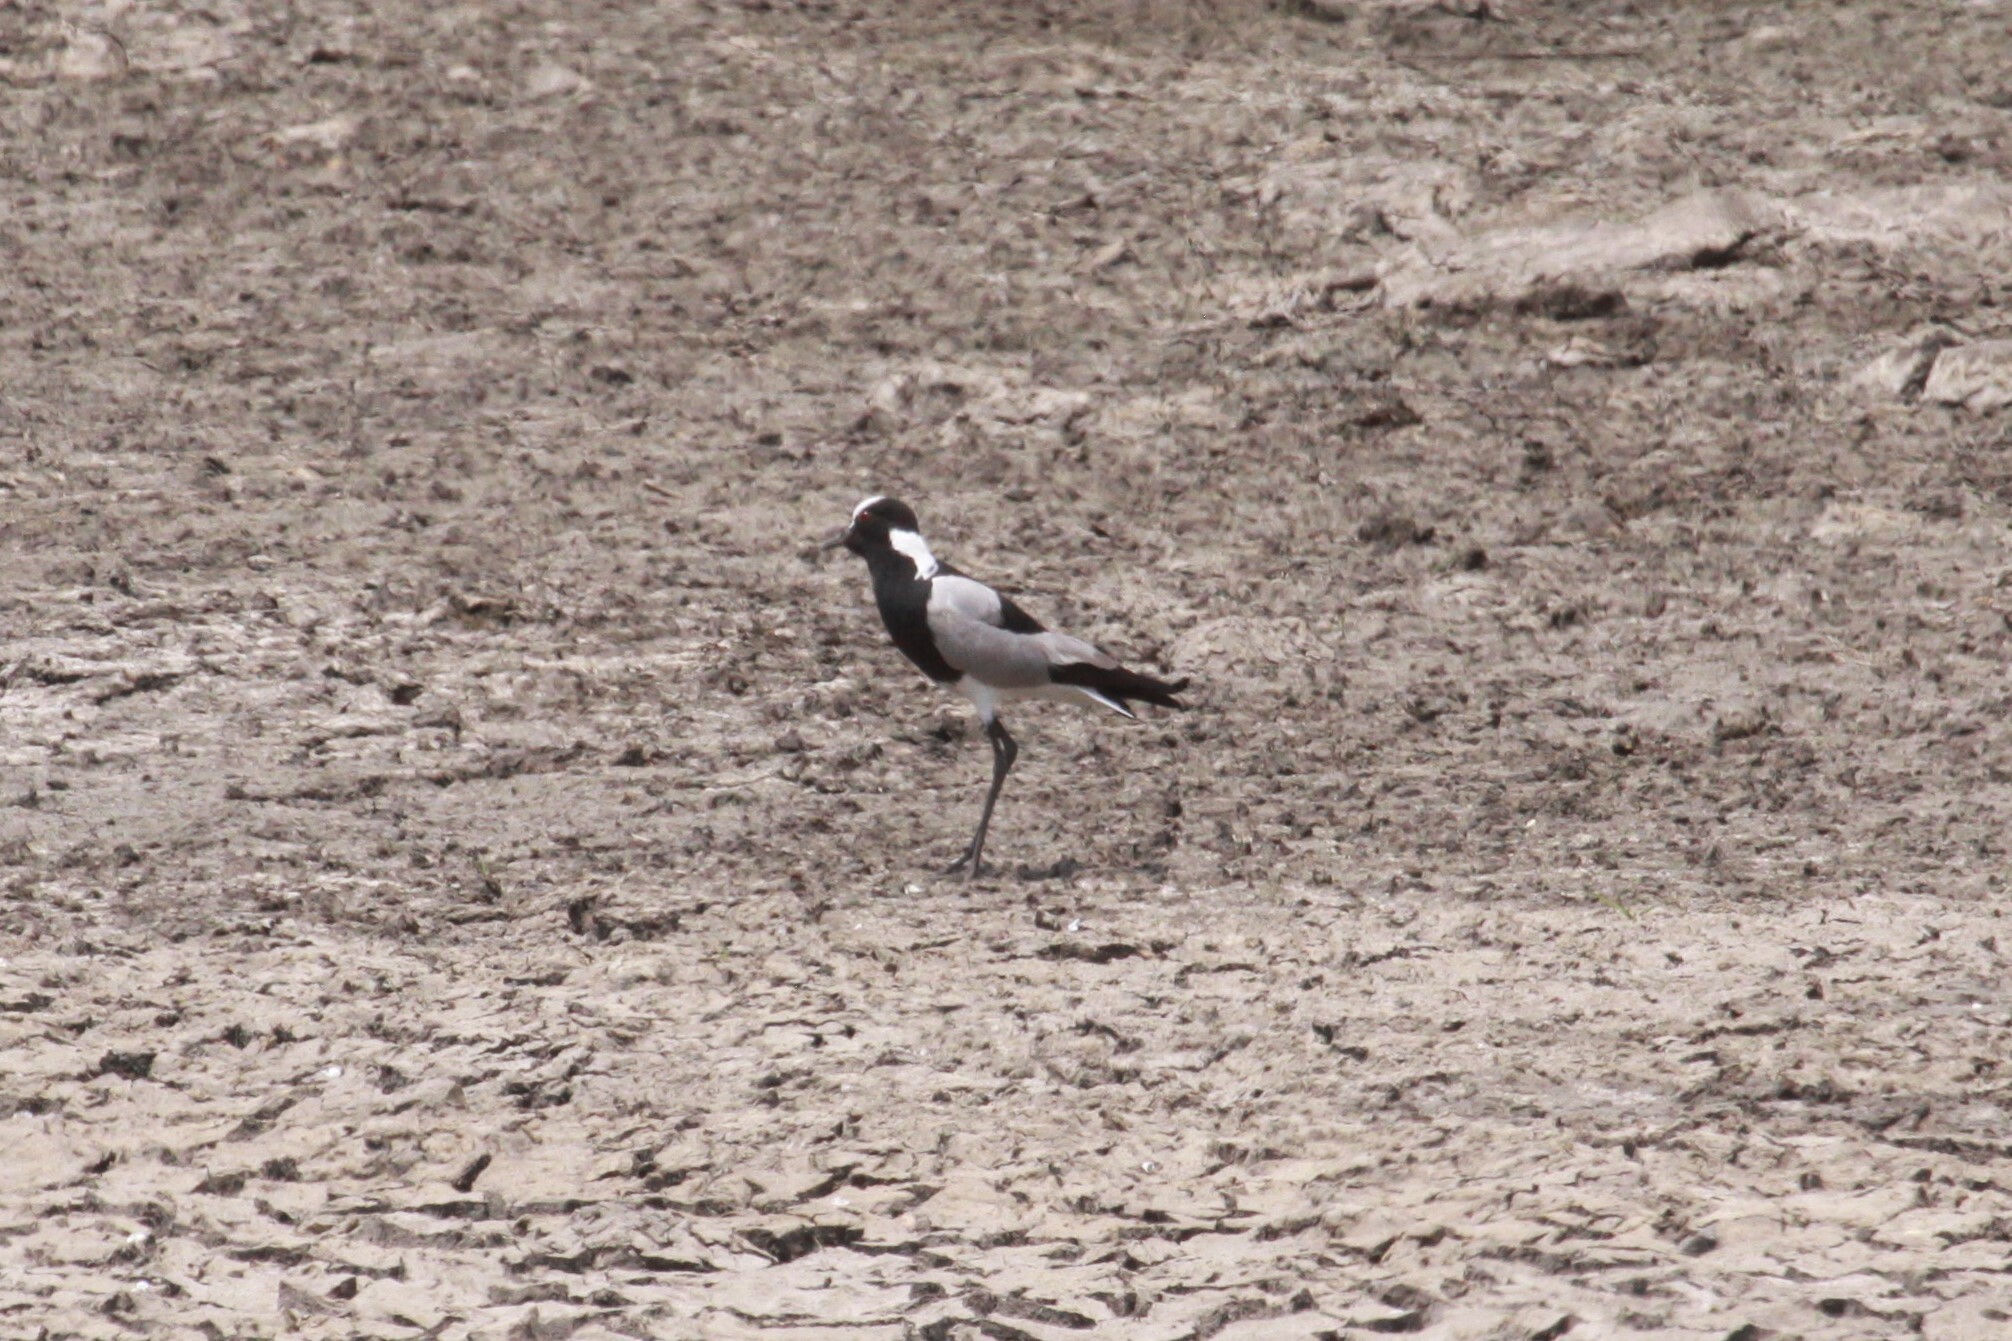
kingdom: Animalia
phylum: Chordata
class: Aves
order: Charadriiformes
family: Charadriidae
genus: Vanellus
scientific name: Vanellus armatus
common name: Blacksmith lapwing
